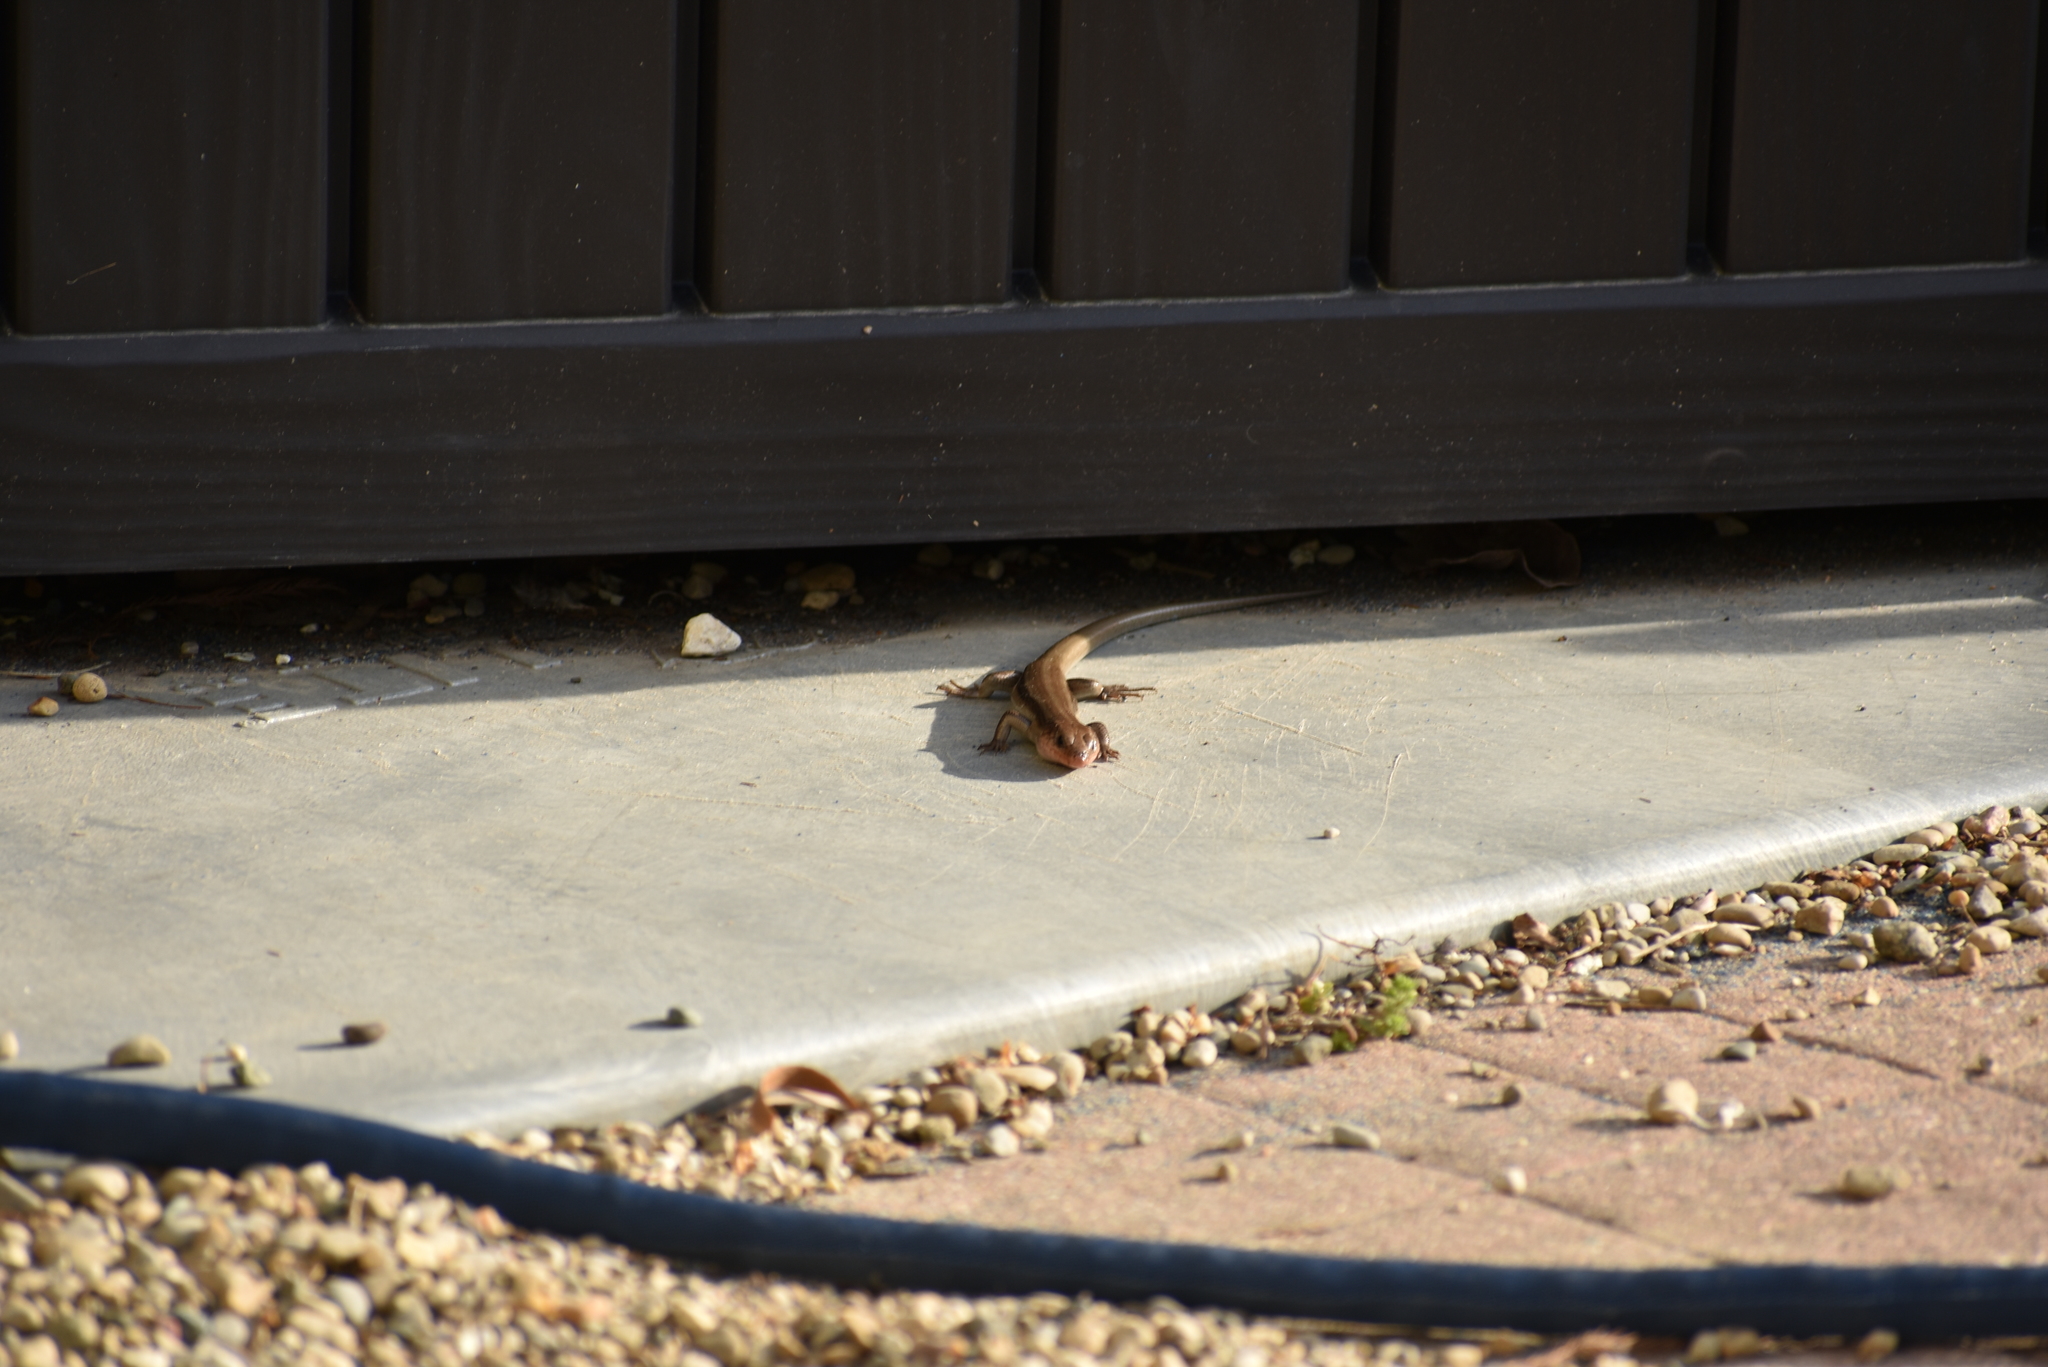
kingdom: Animalia
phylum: Chordata
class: Squamata
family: Scincidae
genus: Plestiodon
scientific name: Plestiodon
